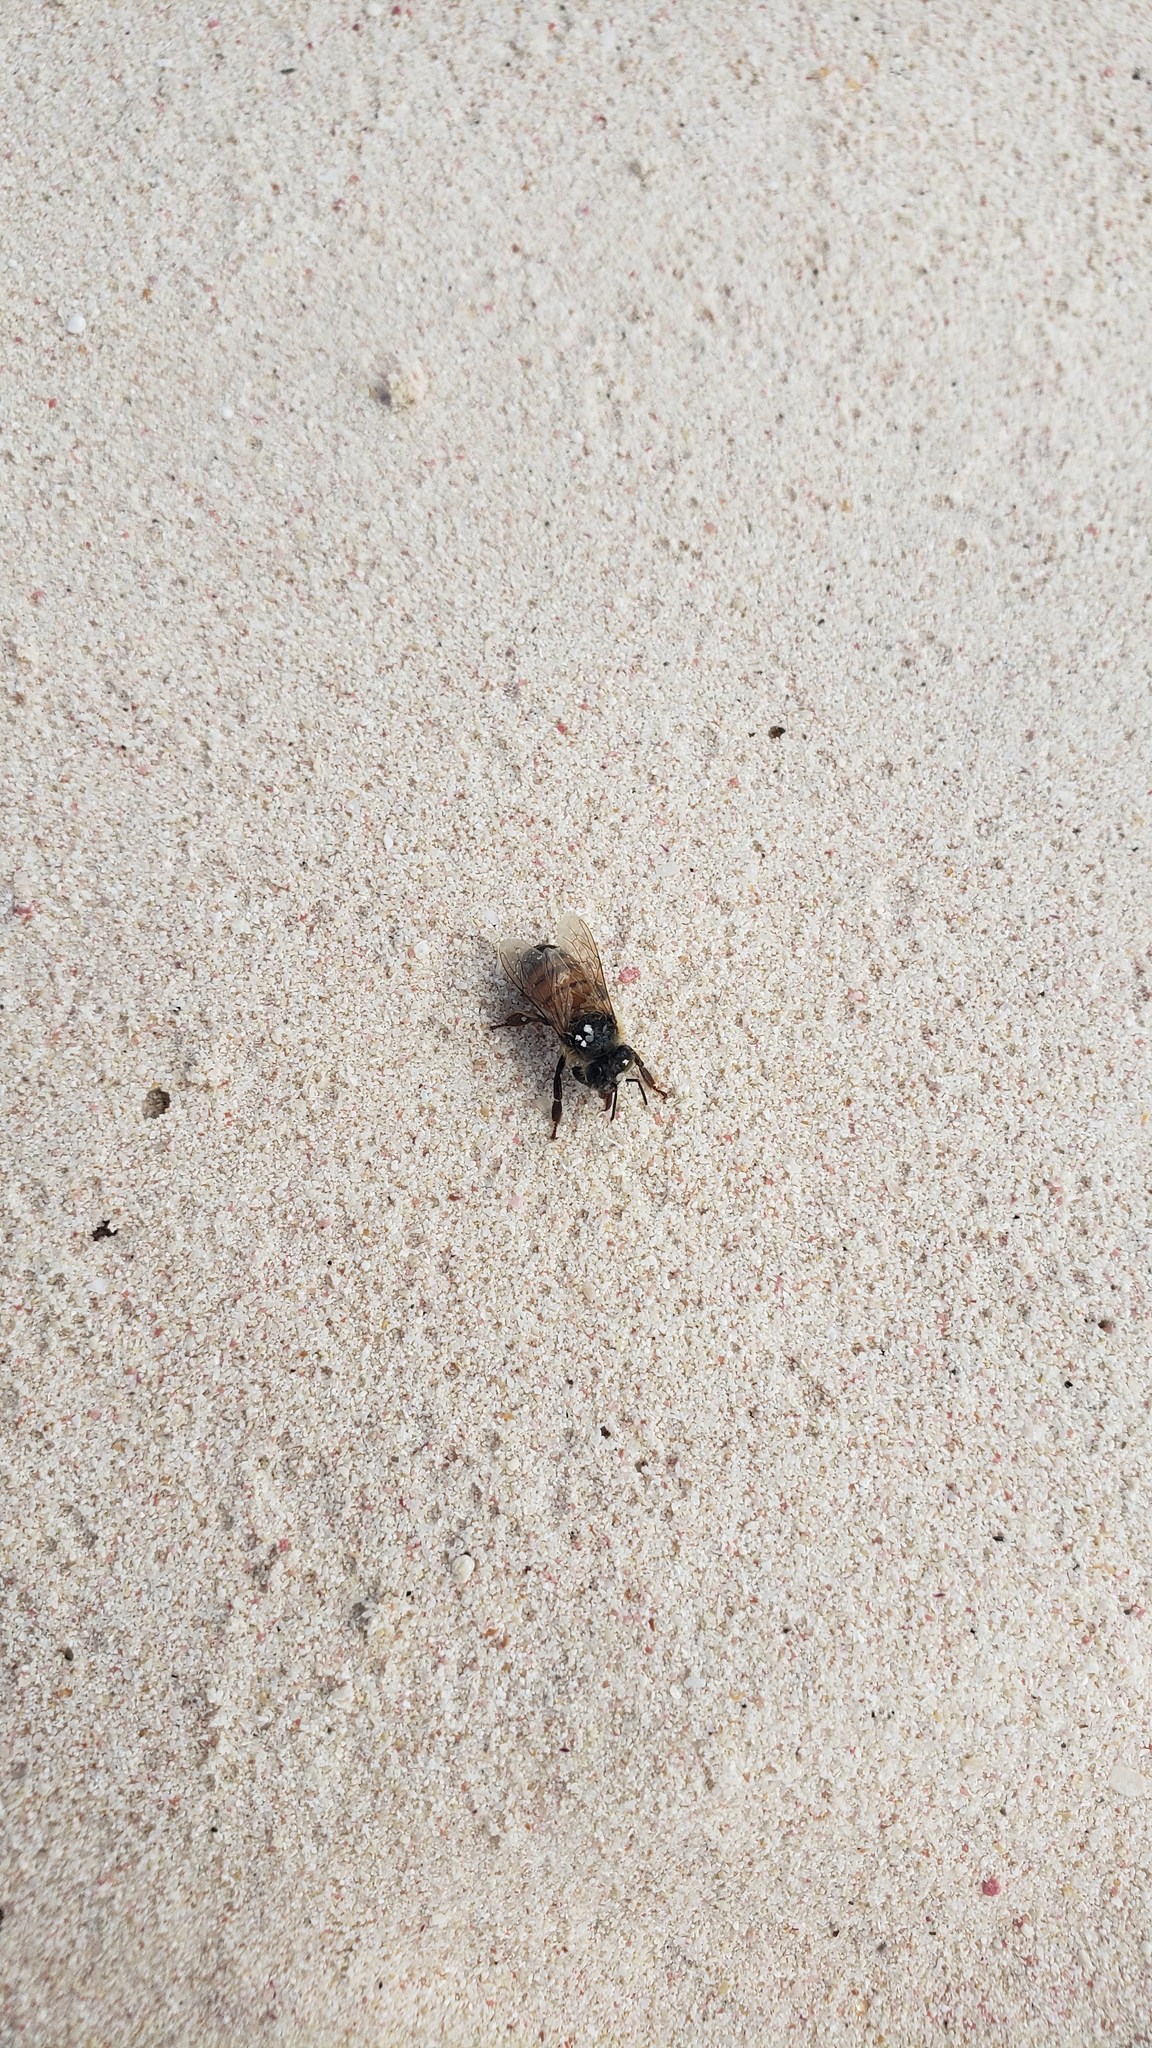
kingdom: Animalia
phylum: Arthropoda
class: Insecta
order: Hymenoptera
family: Apidae
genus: Apis
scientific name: Apis mellifera
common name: Honey bee
